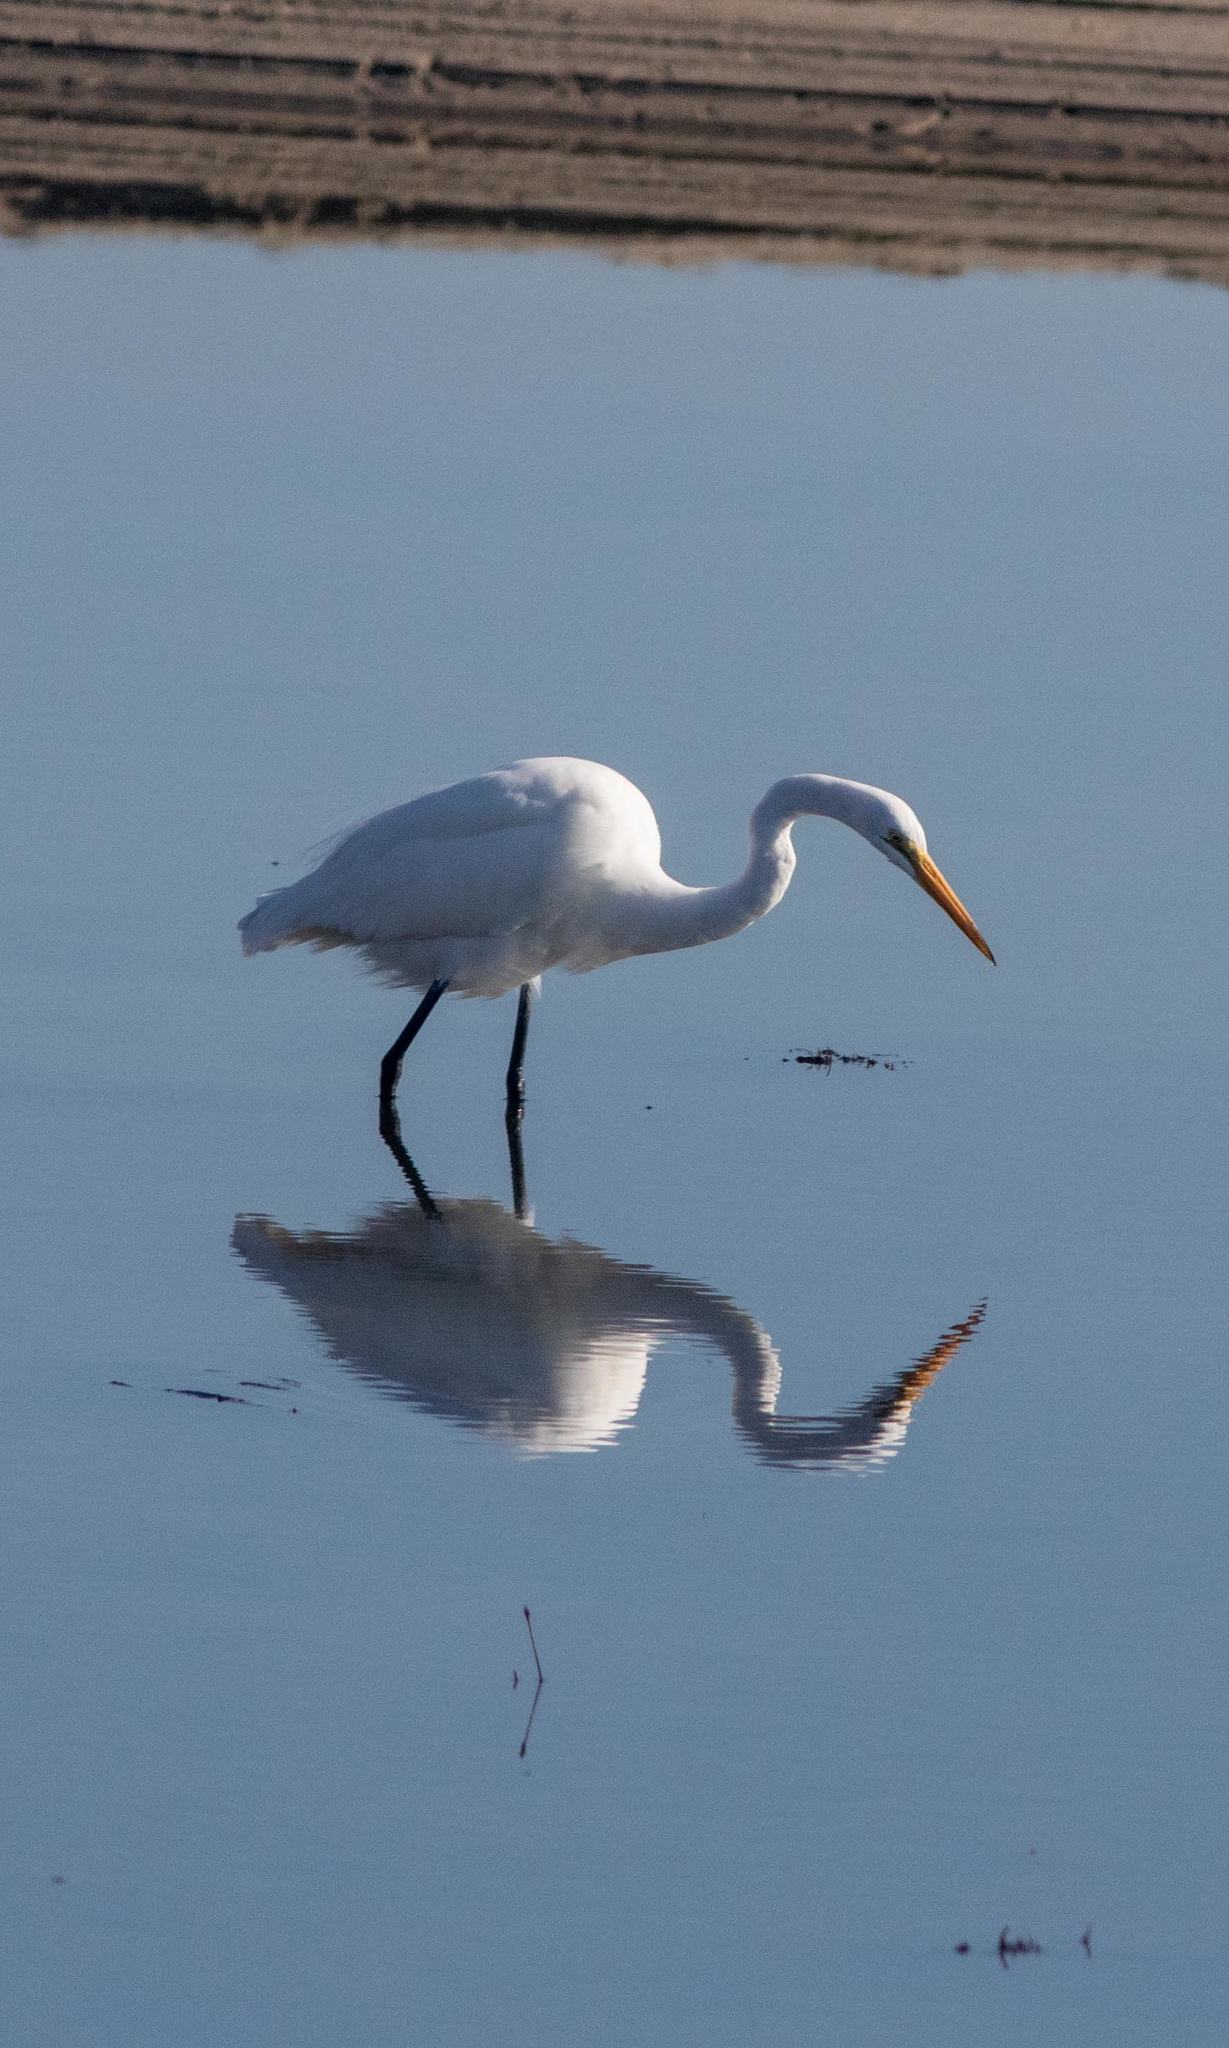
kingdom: Animalia
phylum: Chordata
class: Aves
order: Pelecaniformes
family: Ardeidae
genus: Ardea
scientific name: Ardea alba
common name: Great egret
